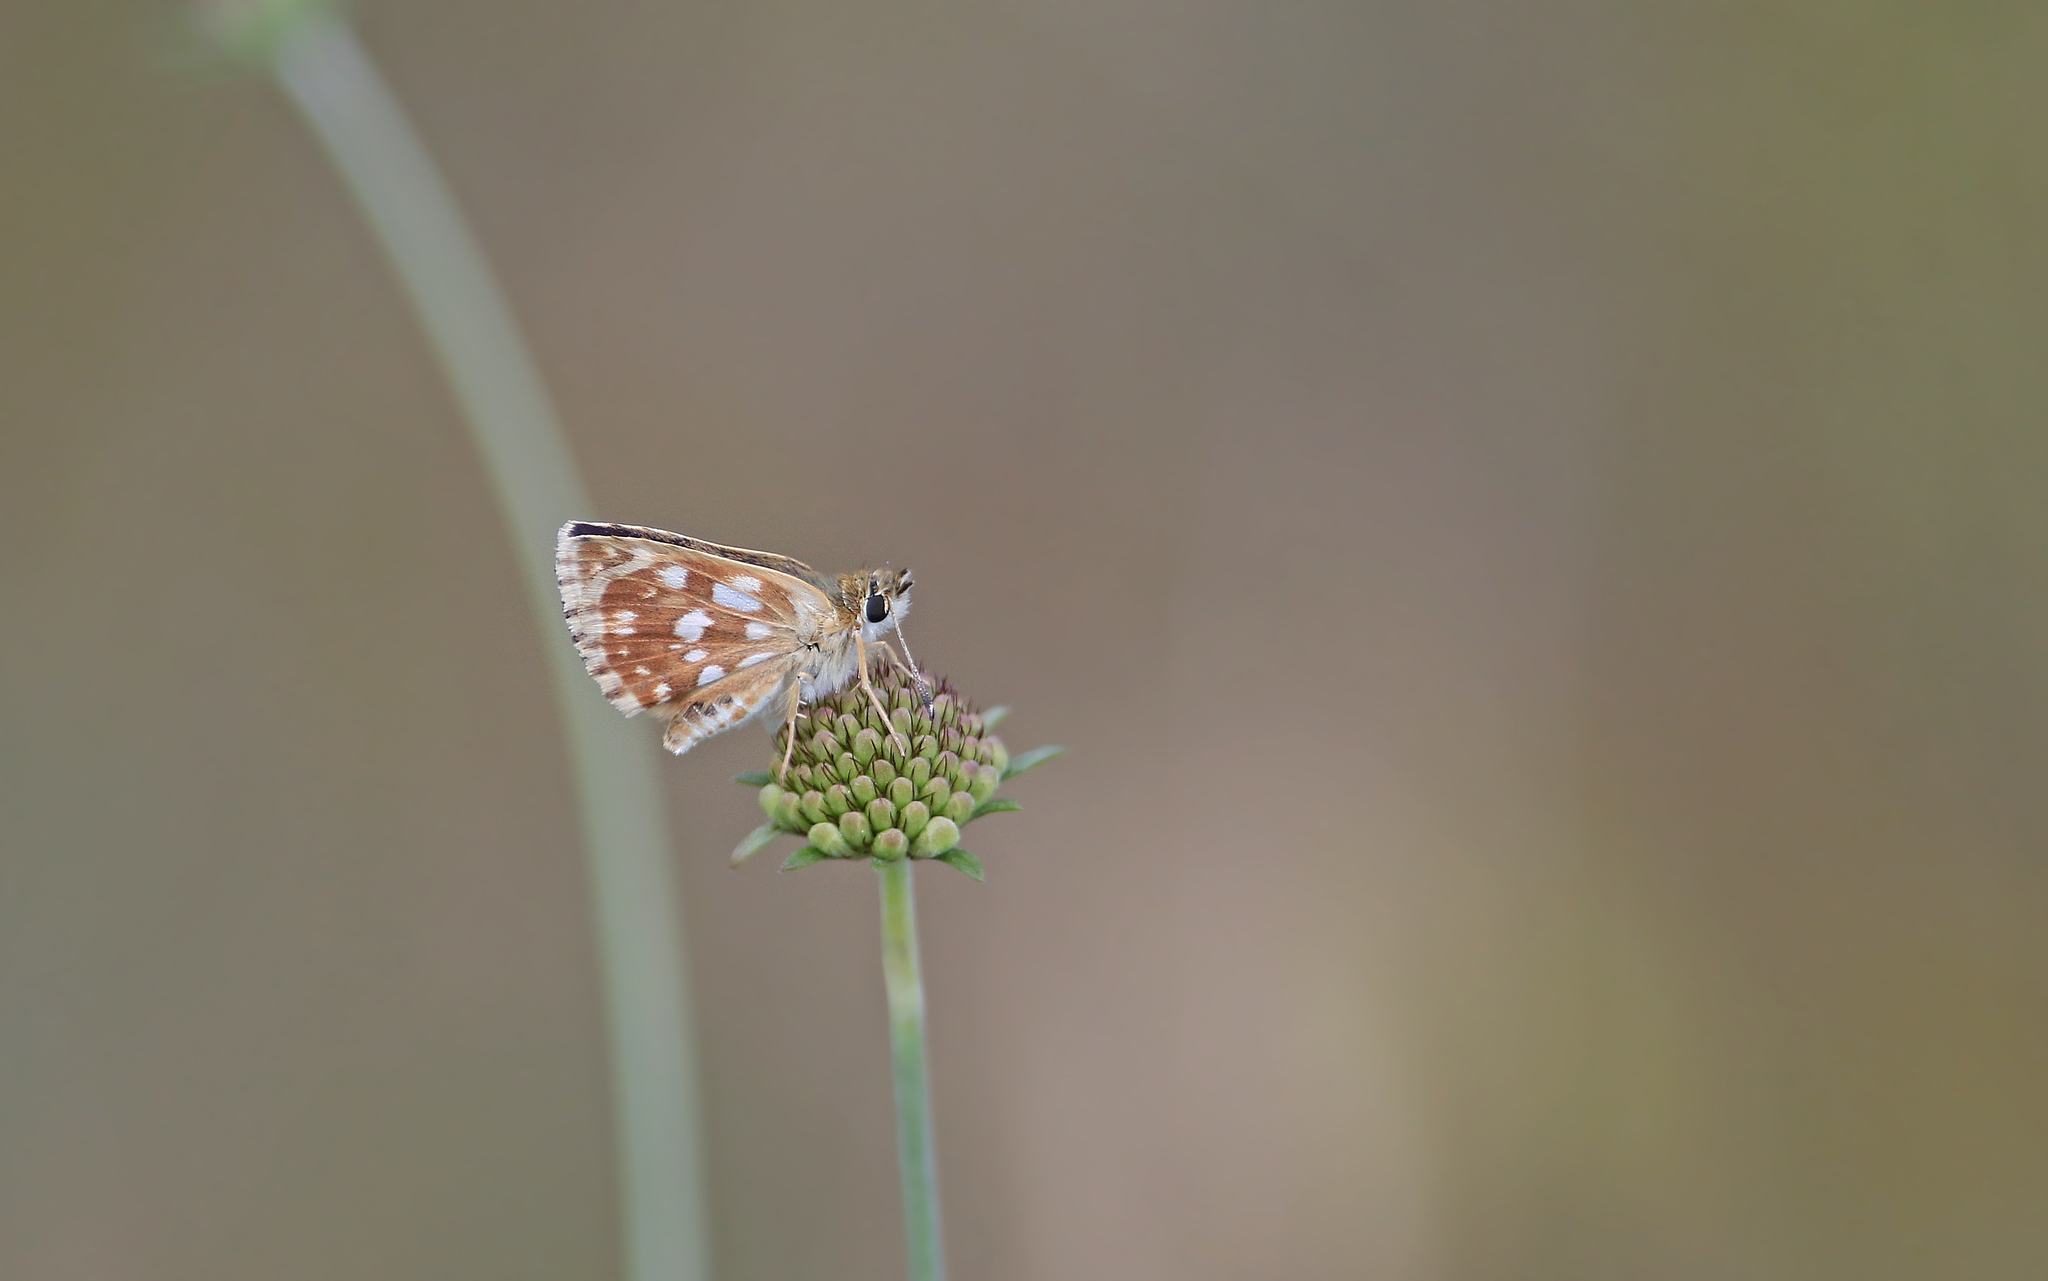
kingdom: Animalia
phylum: Arthropoda
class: Insecta
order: Lepidoptera
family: Hesperiidae
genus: Spialia
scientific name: Spialia sertorius
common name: Red underwing skipper
